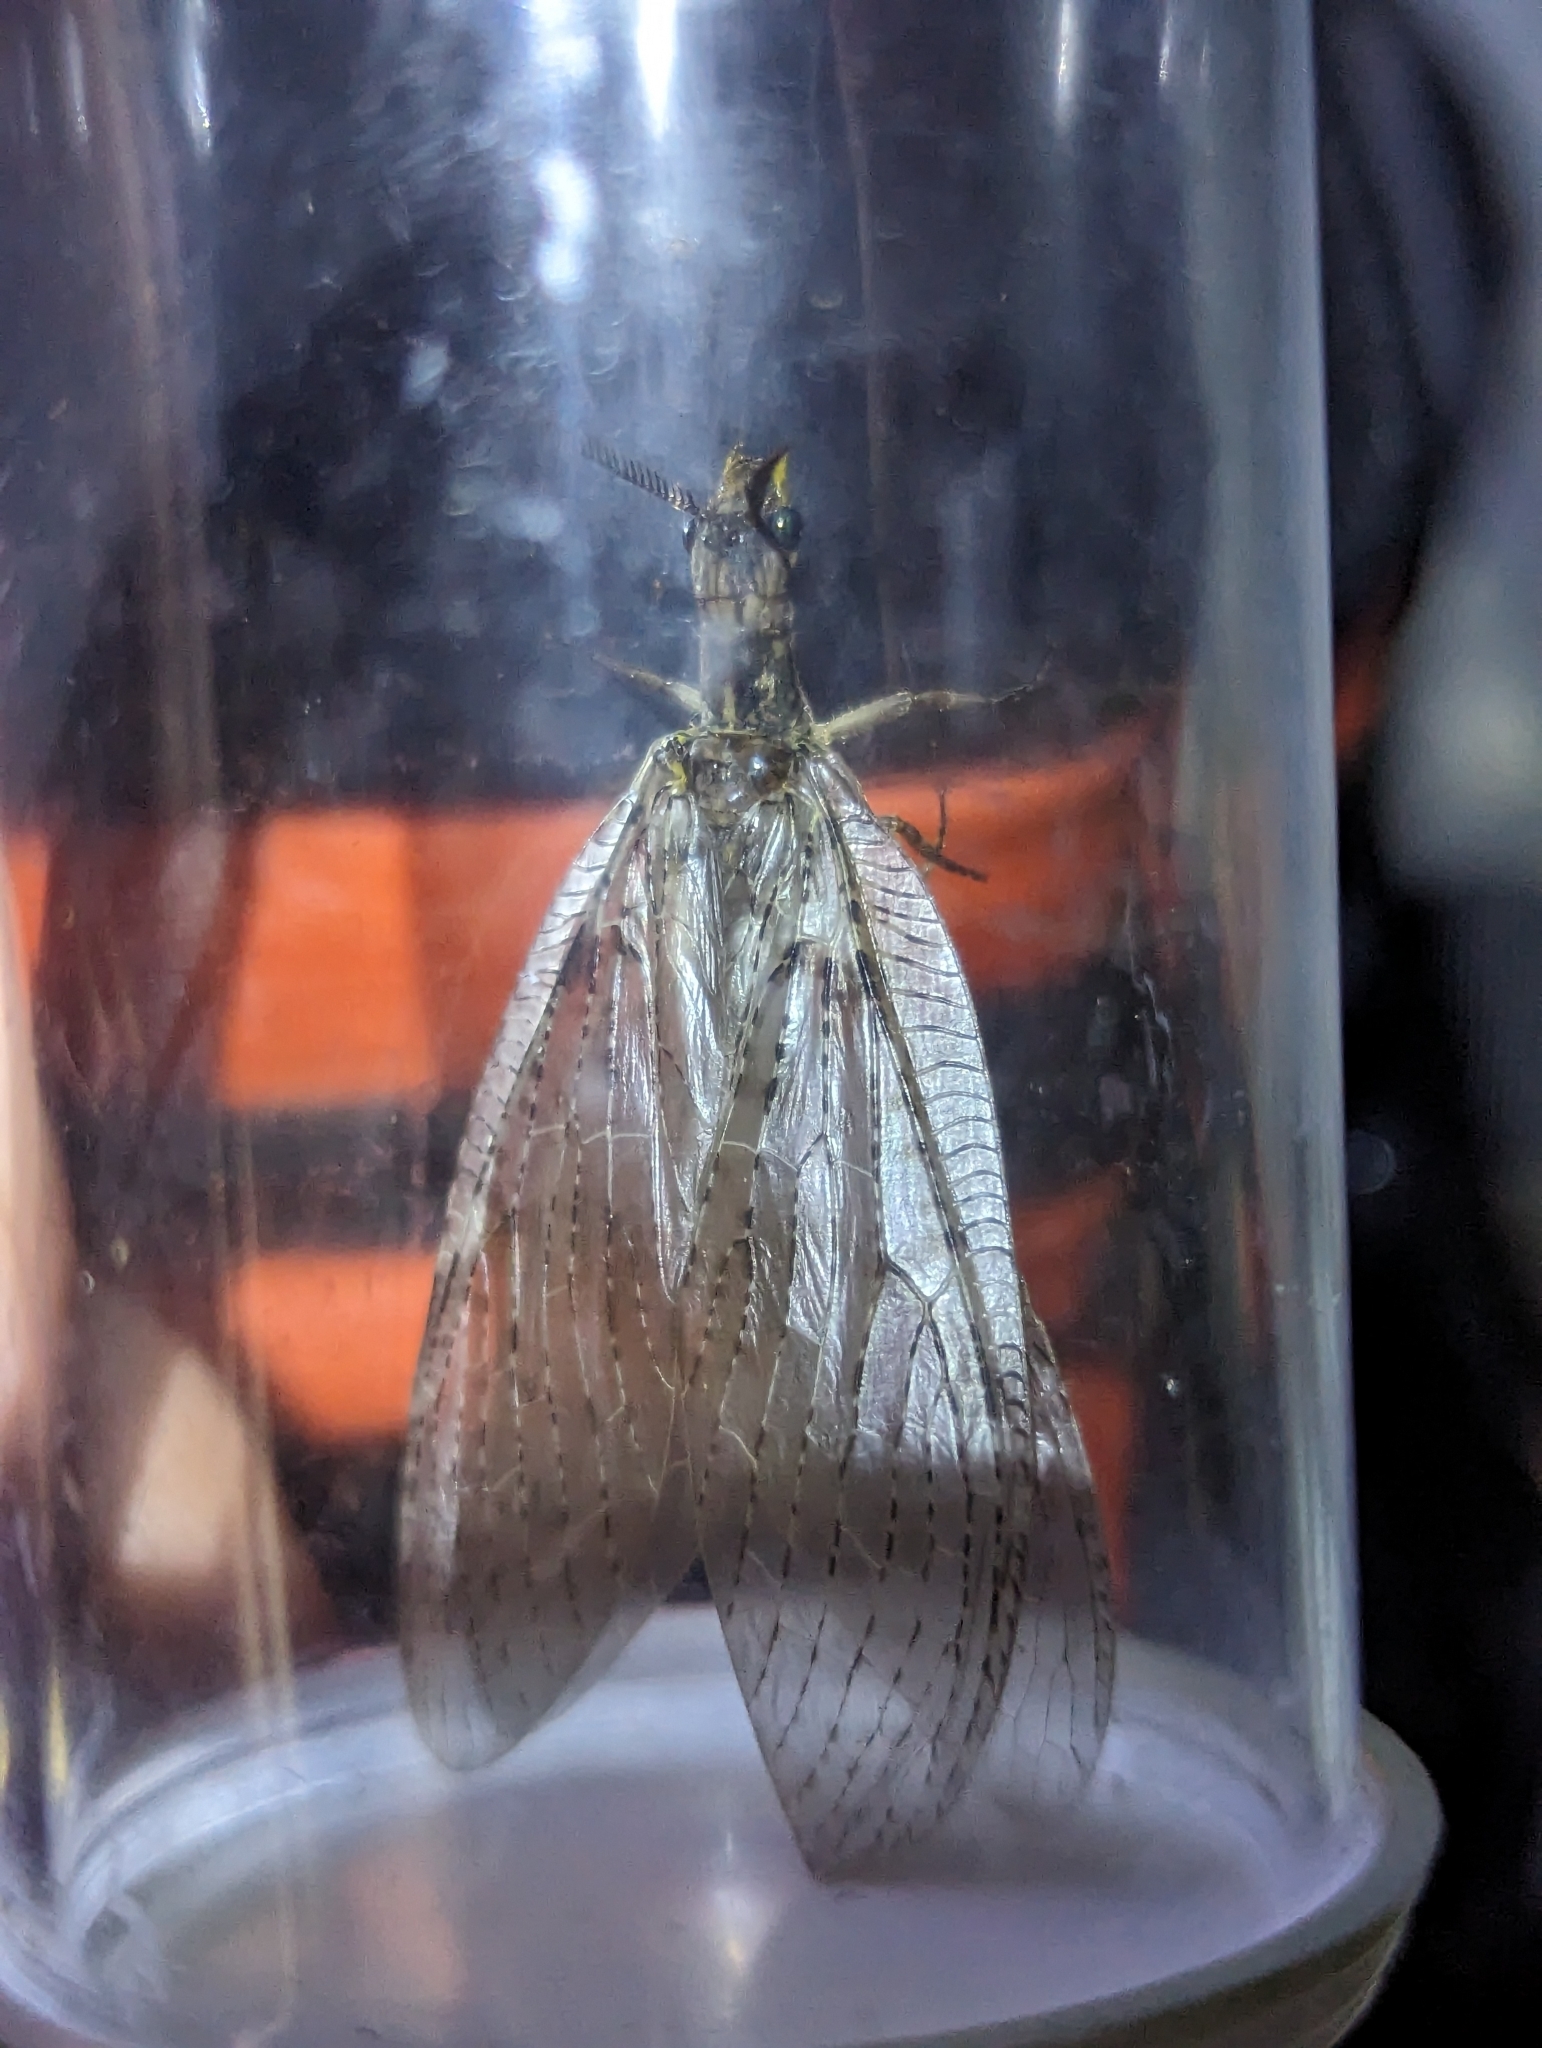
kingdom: Animalia
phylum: Arthropoda
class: Insecta
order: Megaloptera
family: Corydalidae
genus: Chauliodes
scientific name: Chauliodes pectinicornis
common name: Summer fishfly
